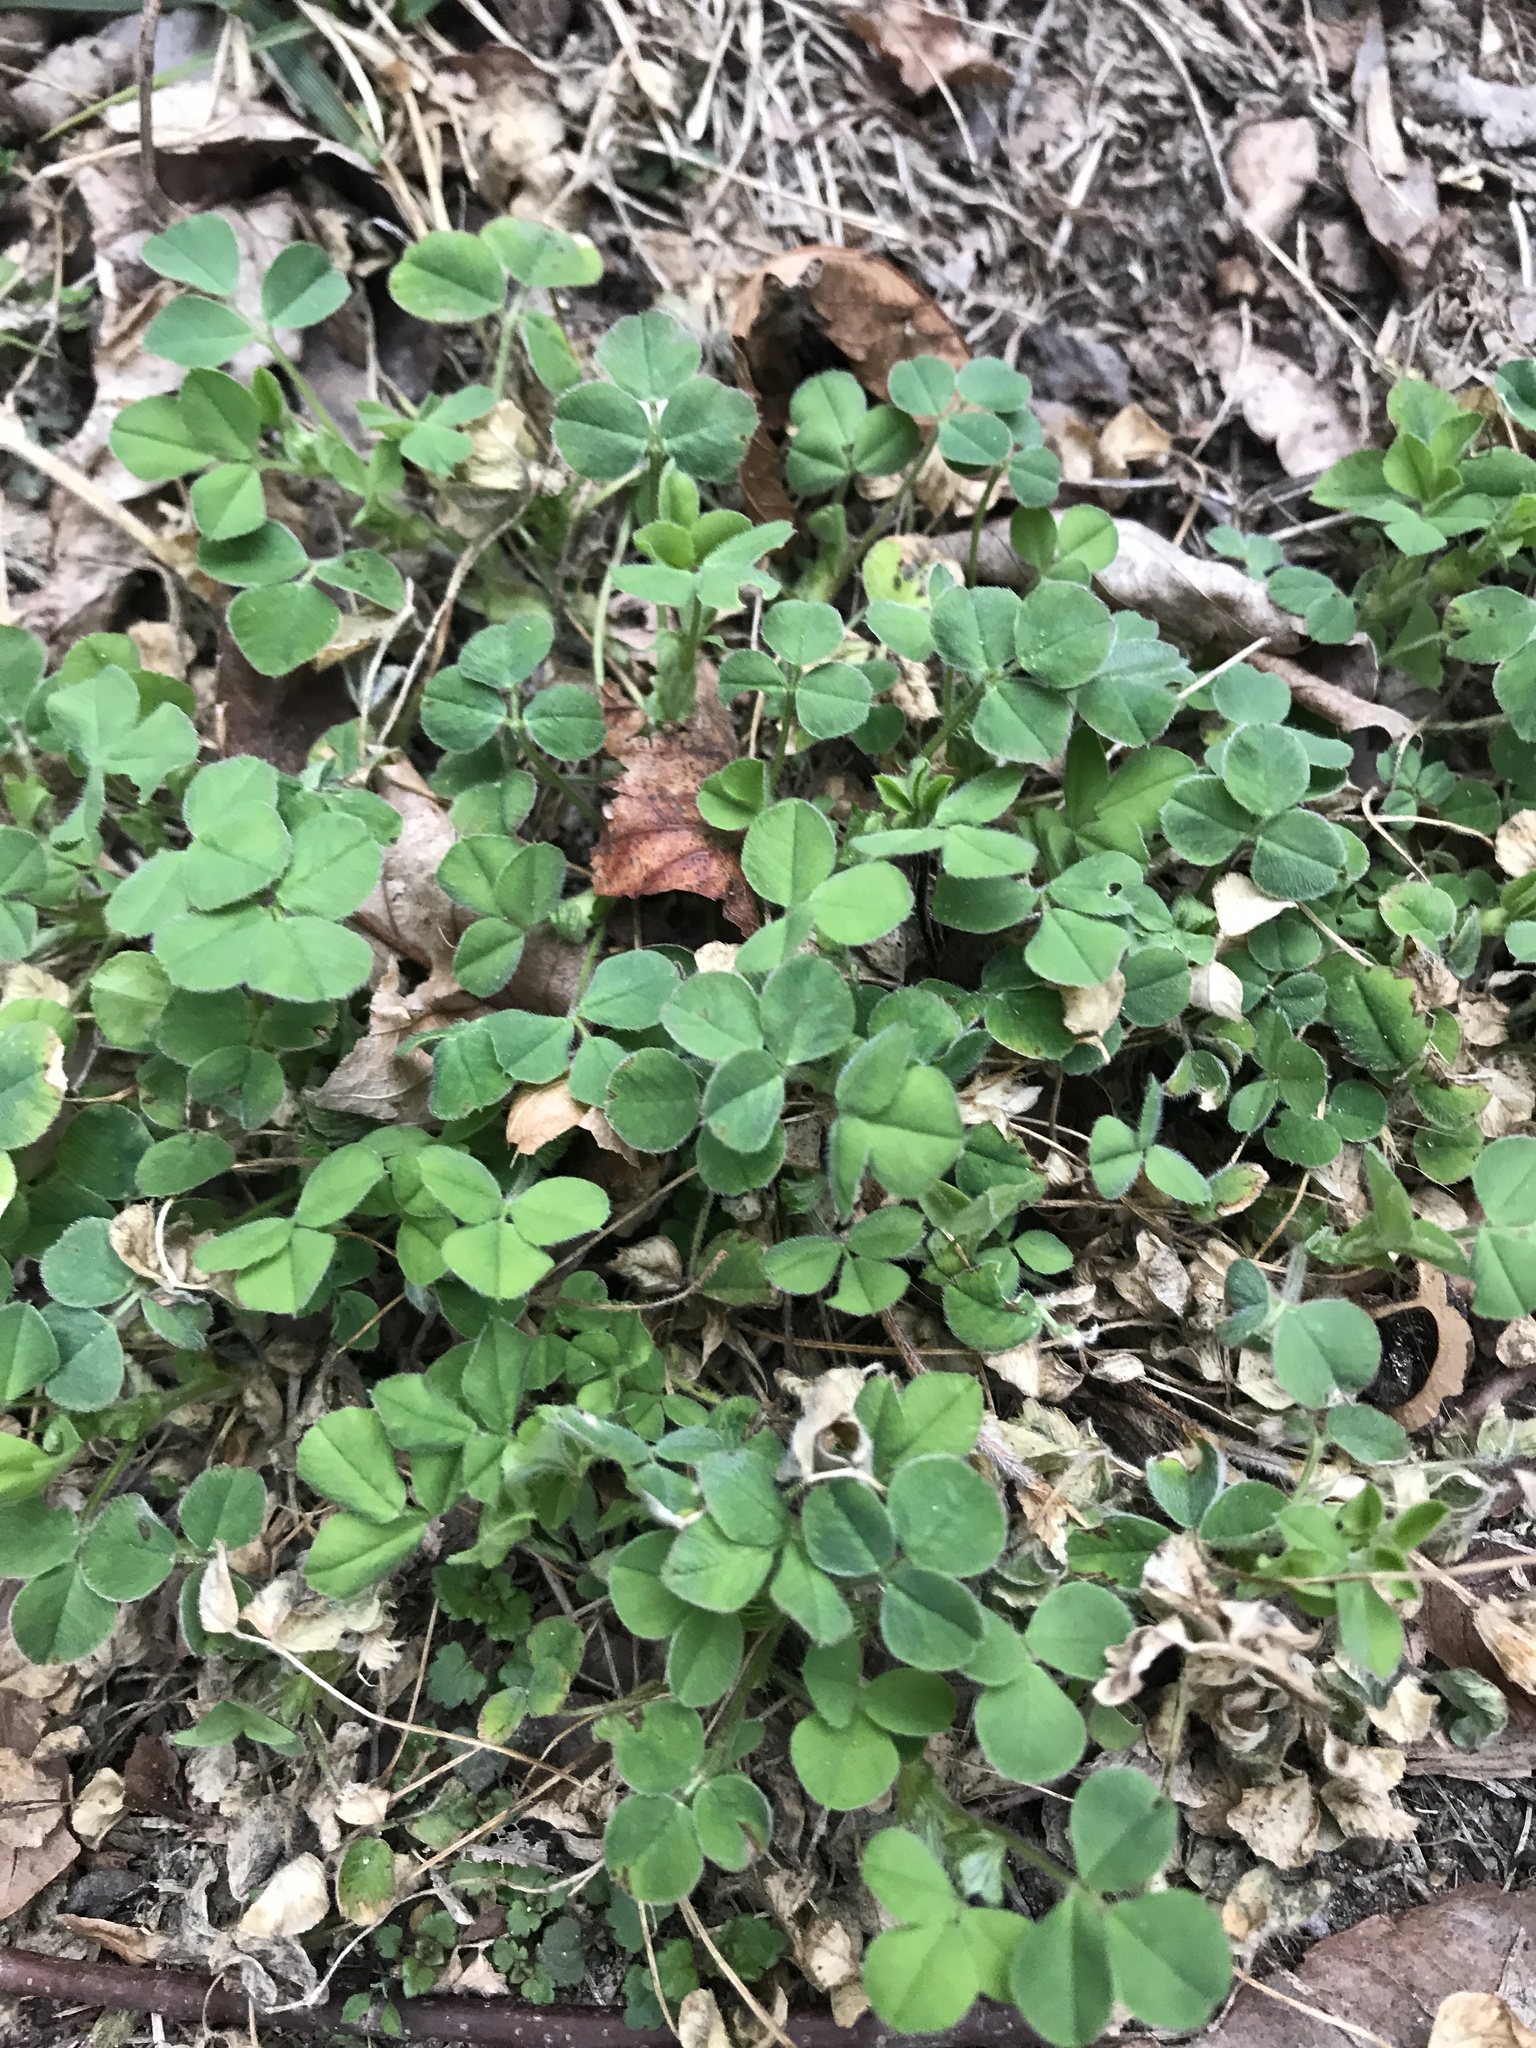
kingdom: Plantae
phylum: Tracheophyta
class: Magnoliopsida
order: Fabales
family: Fabaceae
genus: Medicago
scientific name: Medicago lupulina
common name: Black medick
